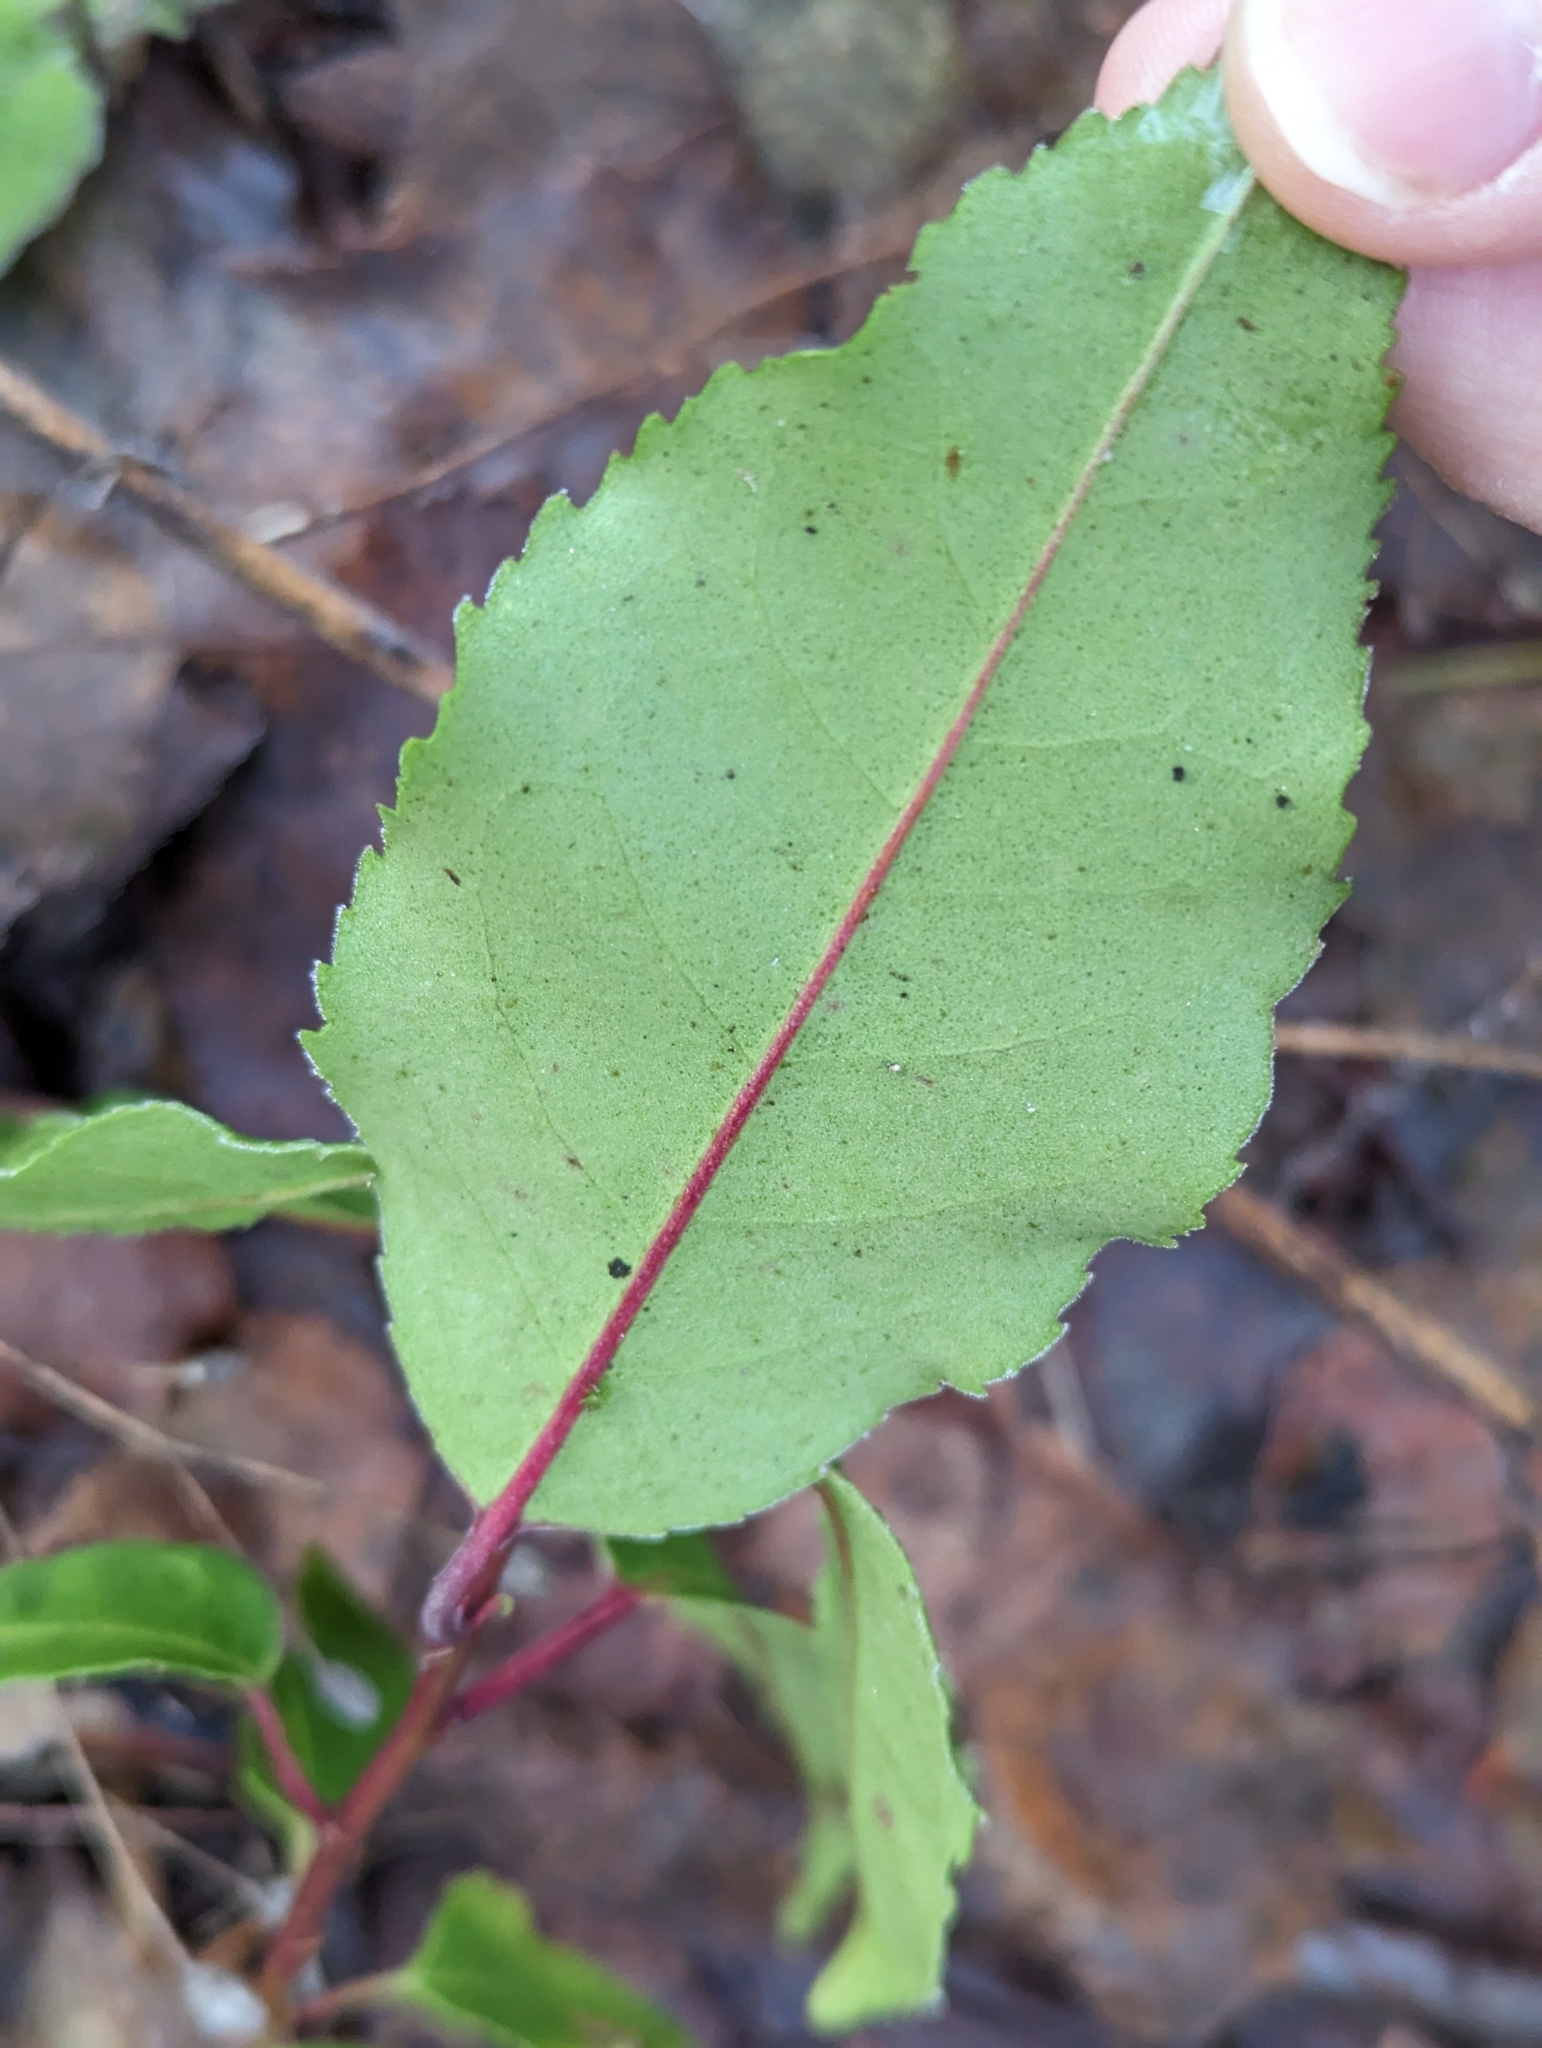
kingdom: Plantae
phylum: Tracheophyta
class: Magnoliopsida
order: Rosales
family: Rosaceae
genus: Prunus
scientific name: Prunus lusitanica
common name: Portugal laurel
